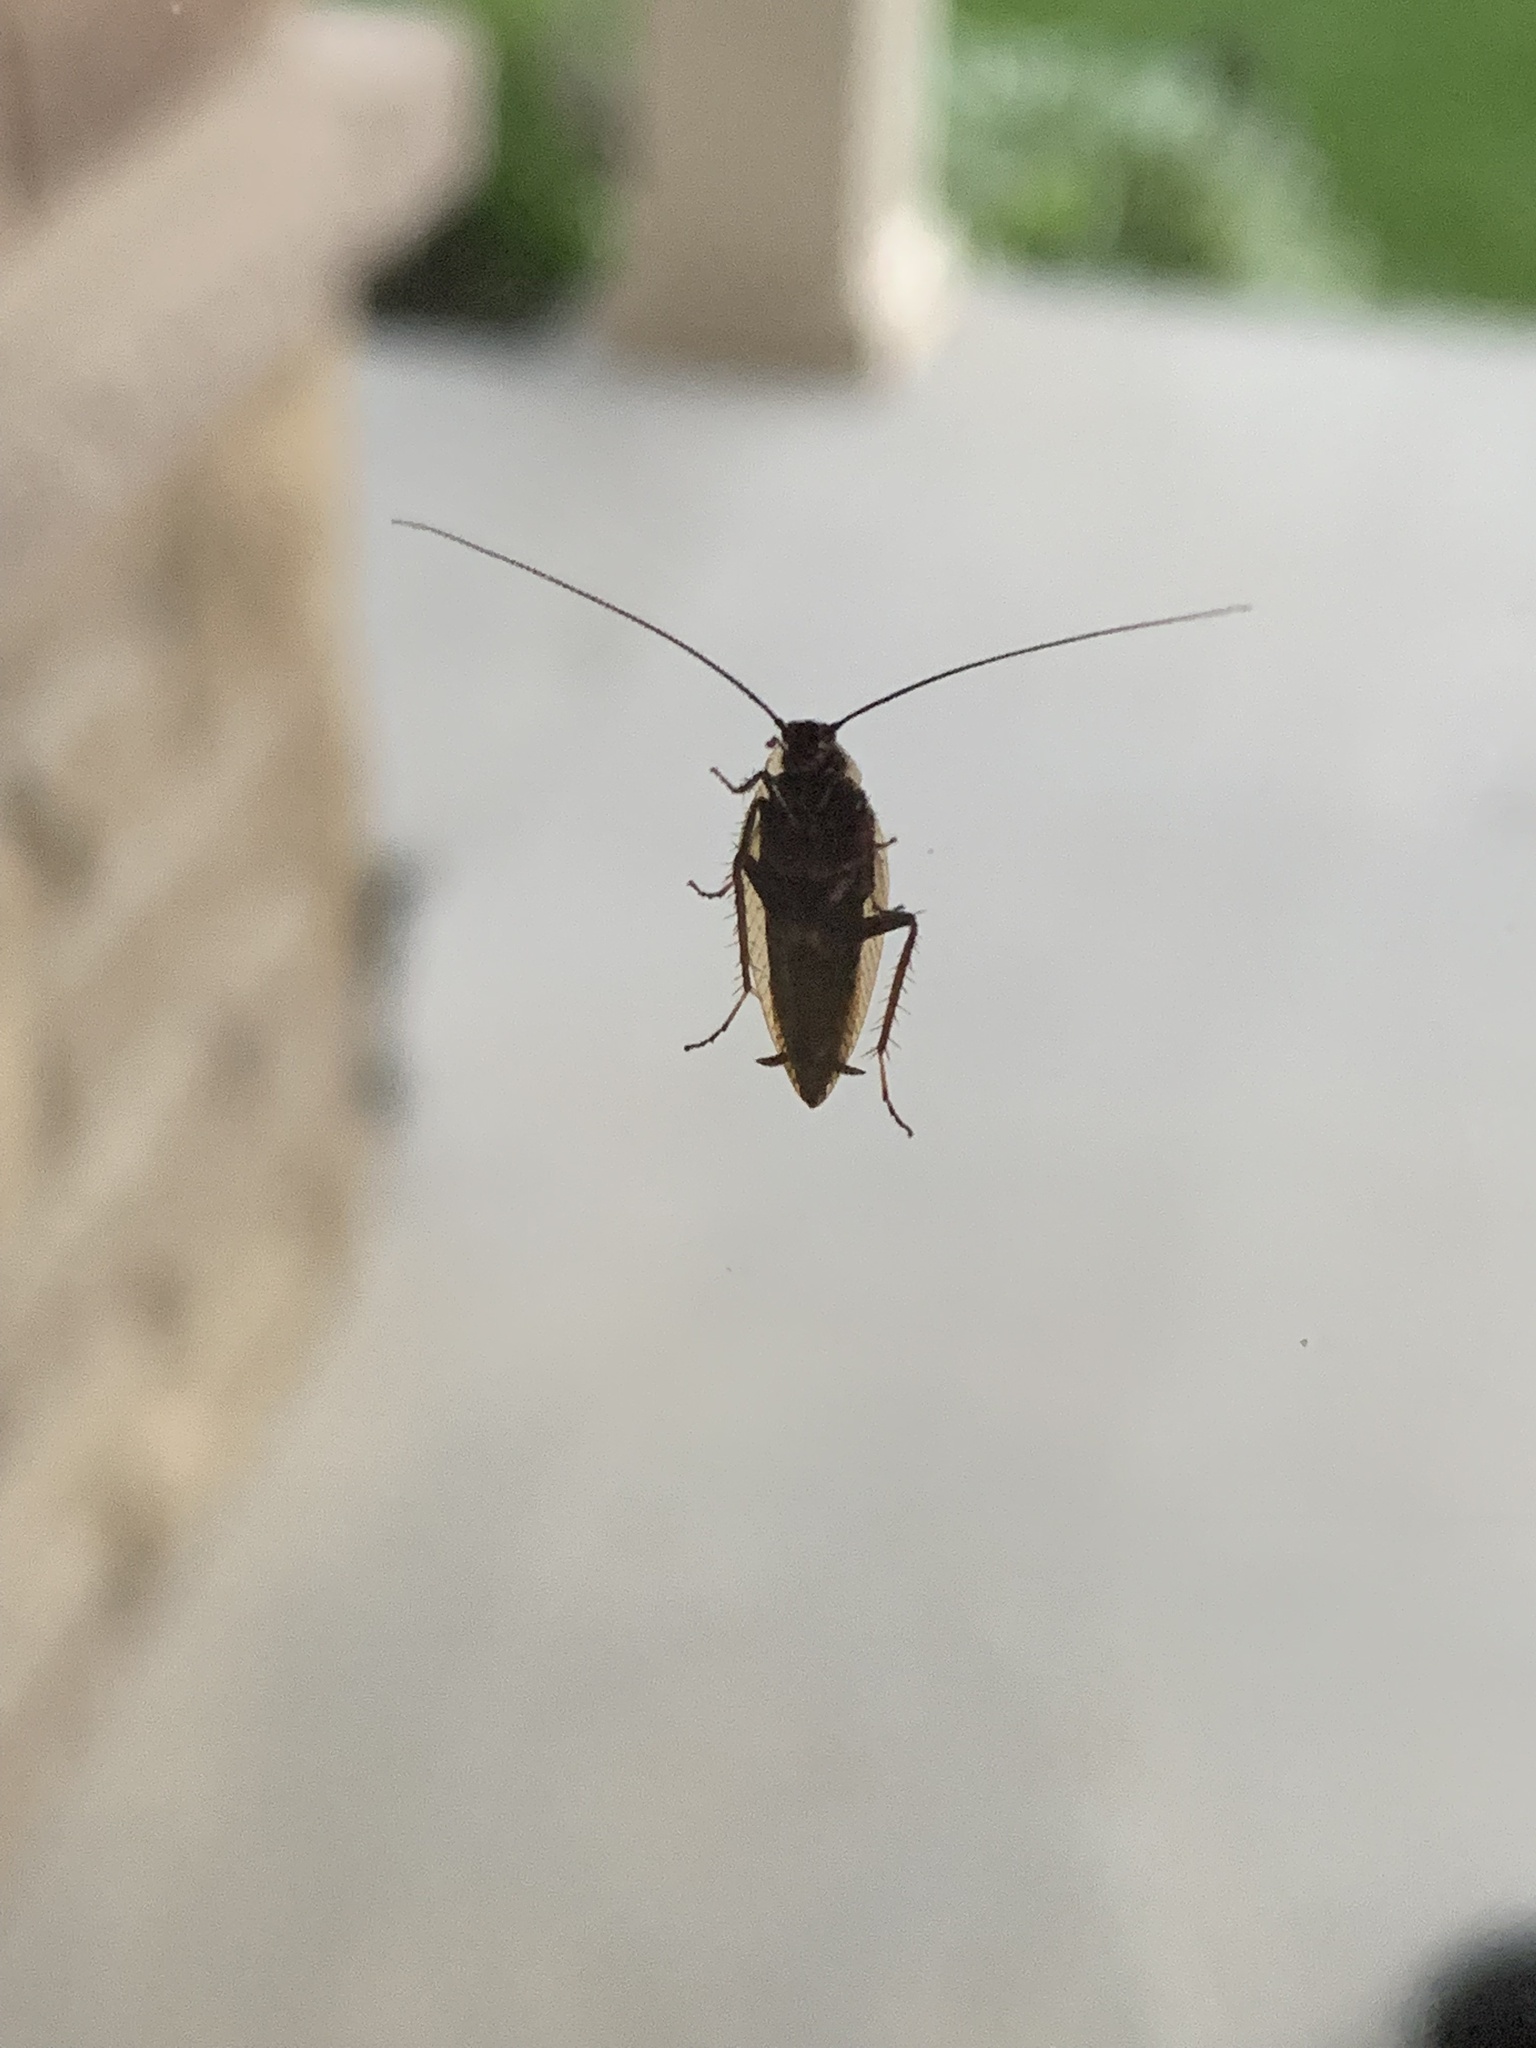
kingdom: Animalia
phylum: Arthropoda
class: Insecta
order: Blattodea
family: Ectobiidae
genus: Ectobius
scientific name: Ectobius lapponicus
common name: Dusky cockroach
